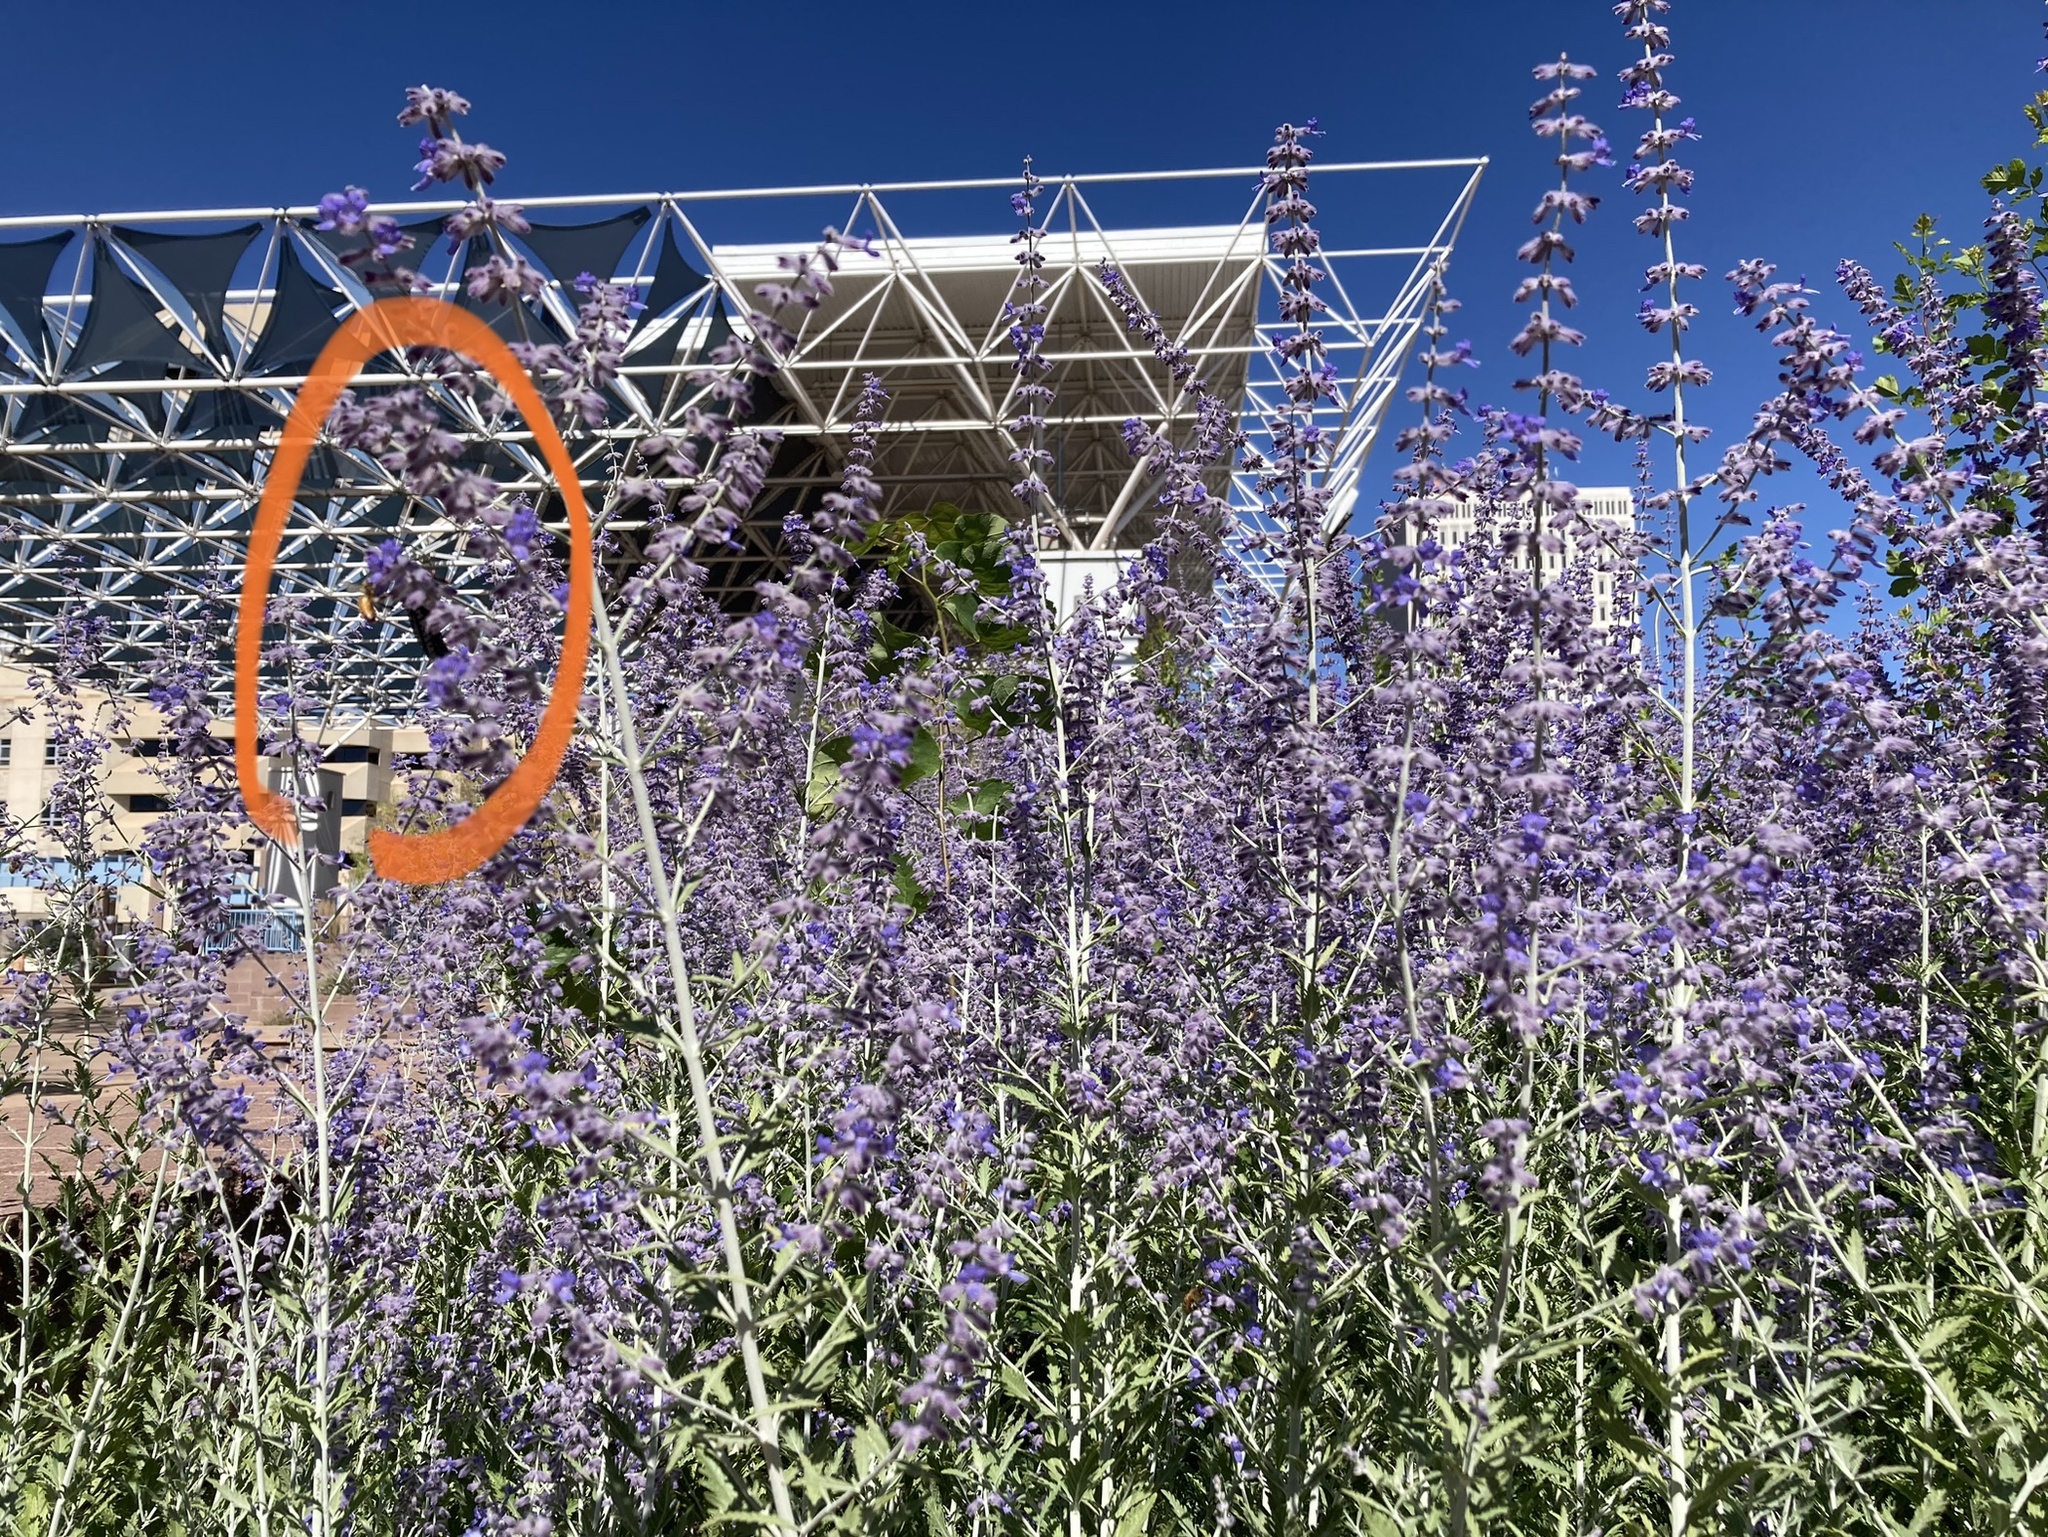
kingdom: Animalia
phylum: Arthropoda
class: Insecta
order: Hymenoptera
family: Apidae
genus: Apis
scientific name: Apis mellifera
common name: Honey bee
